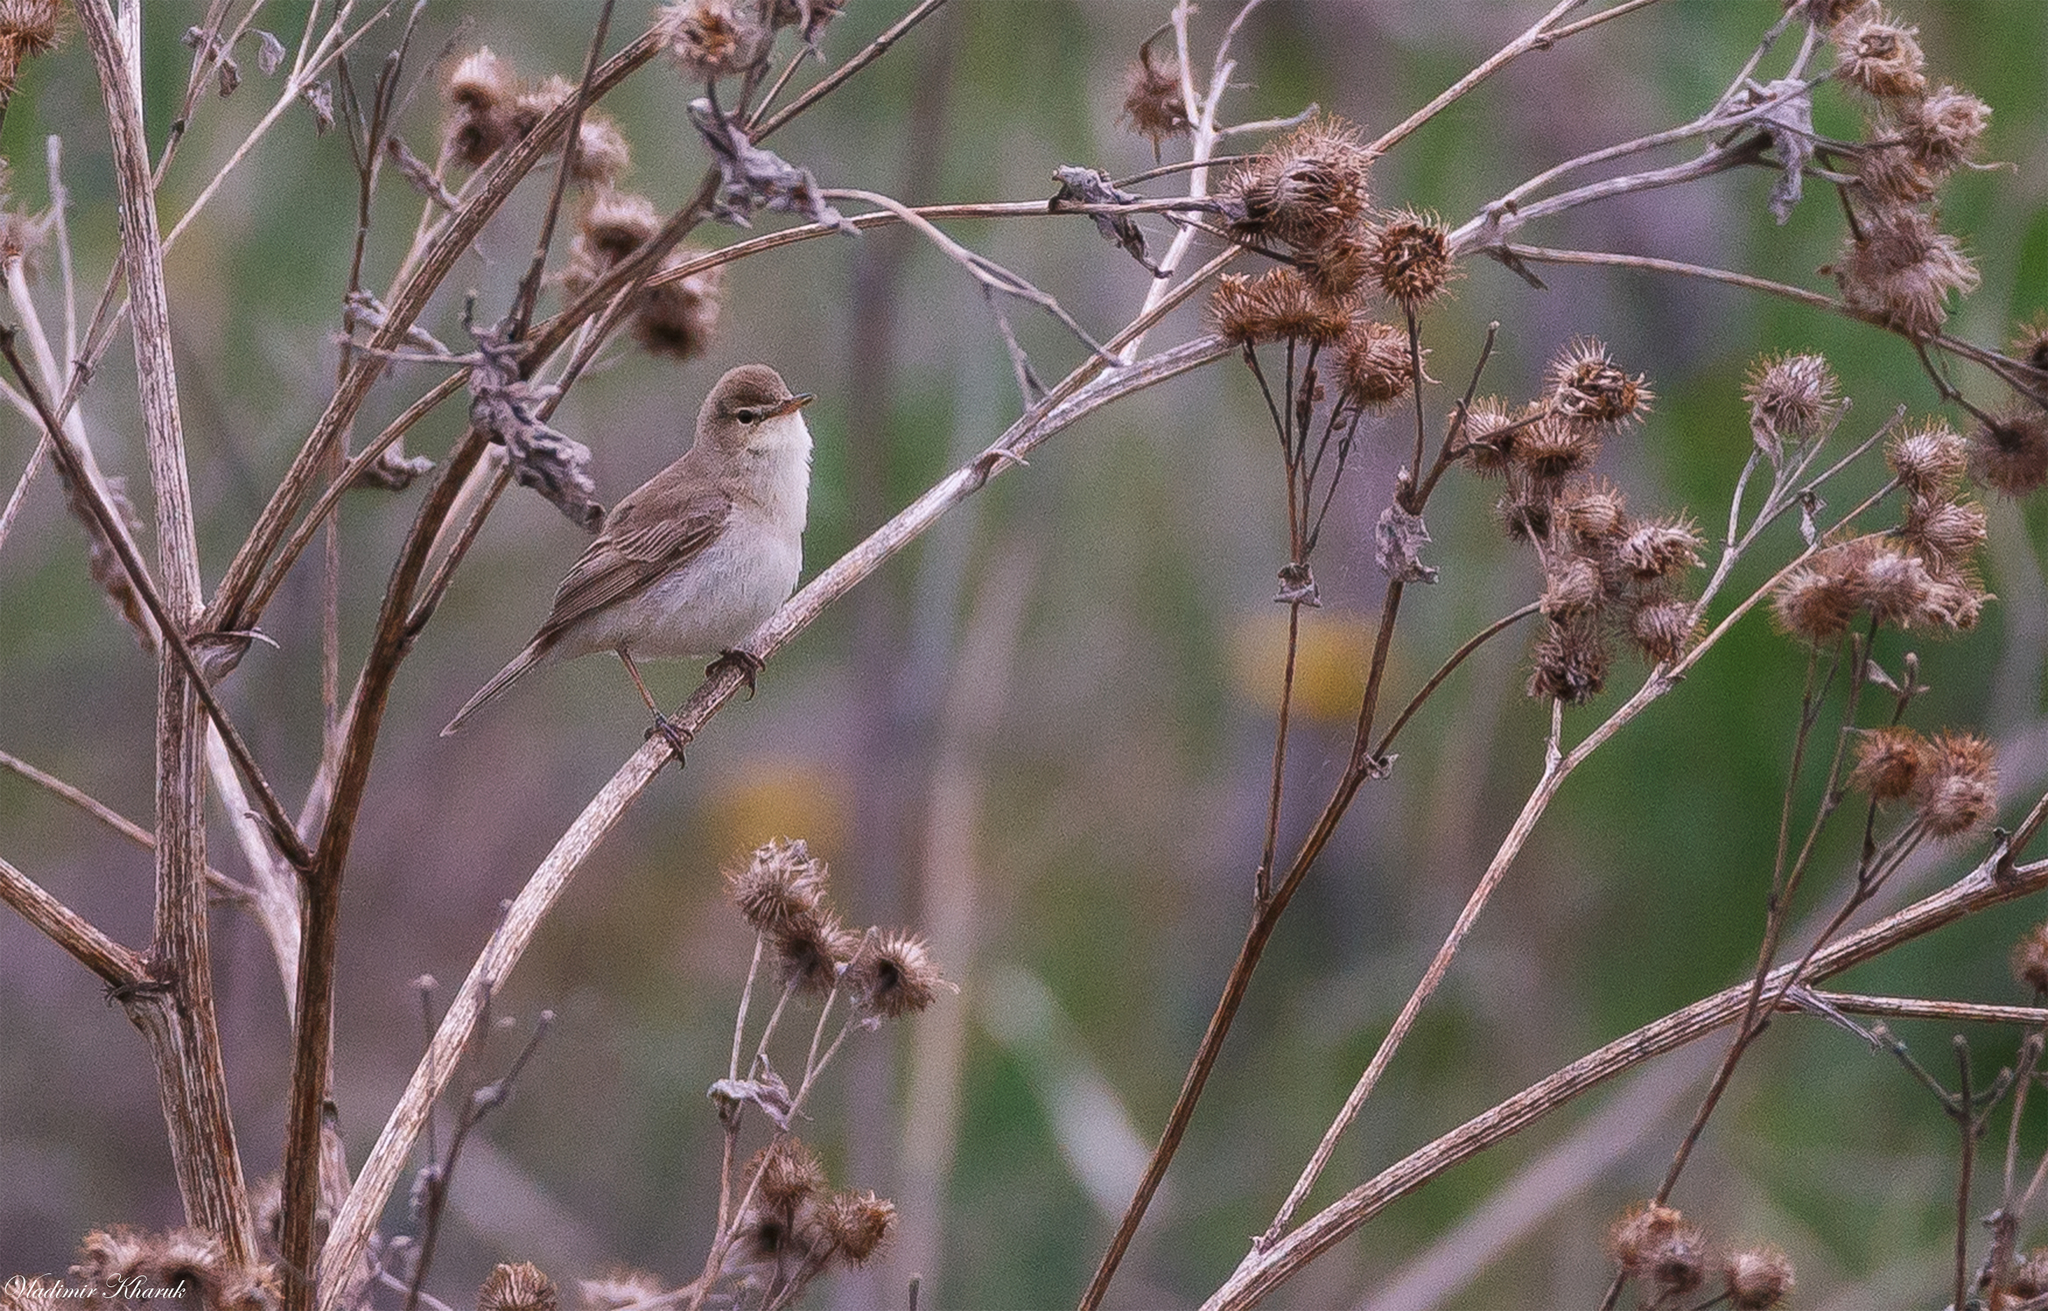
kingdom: Animalia
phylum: Chordata
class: Aves
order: Passeriformes
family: Acrocephalidae
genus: Iduna
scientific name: Iduna caligata
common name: Booted warbler
